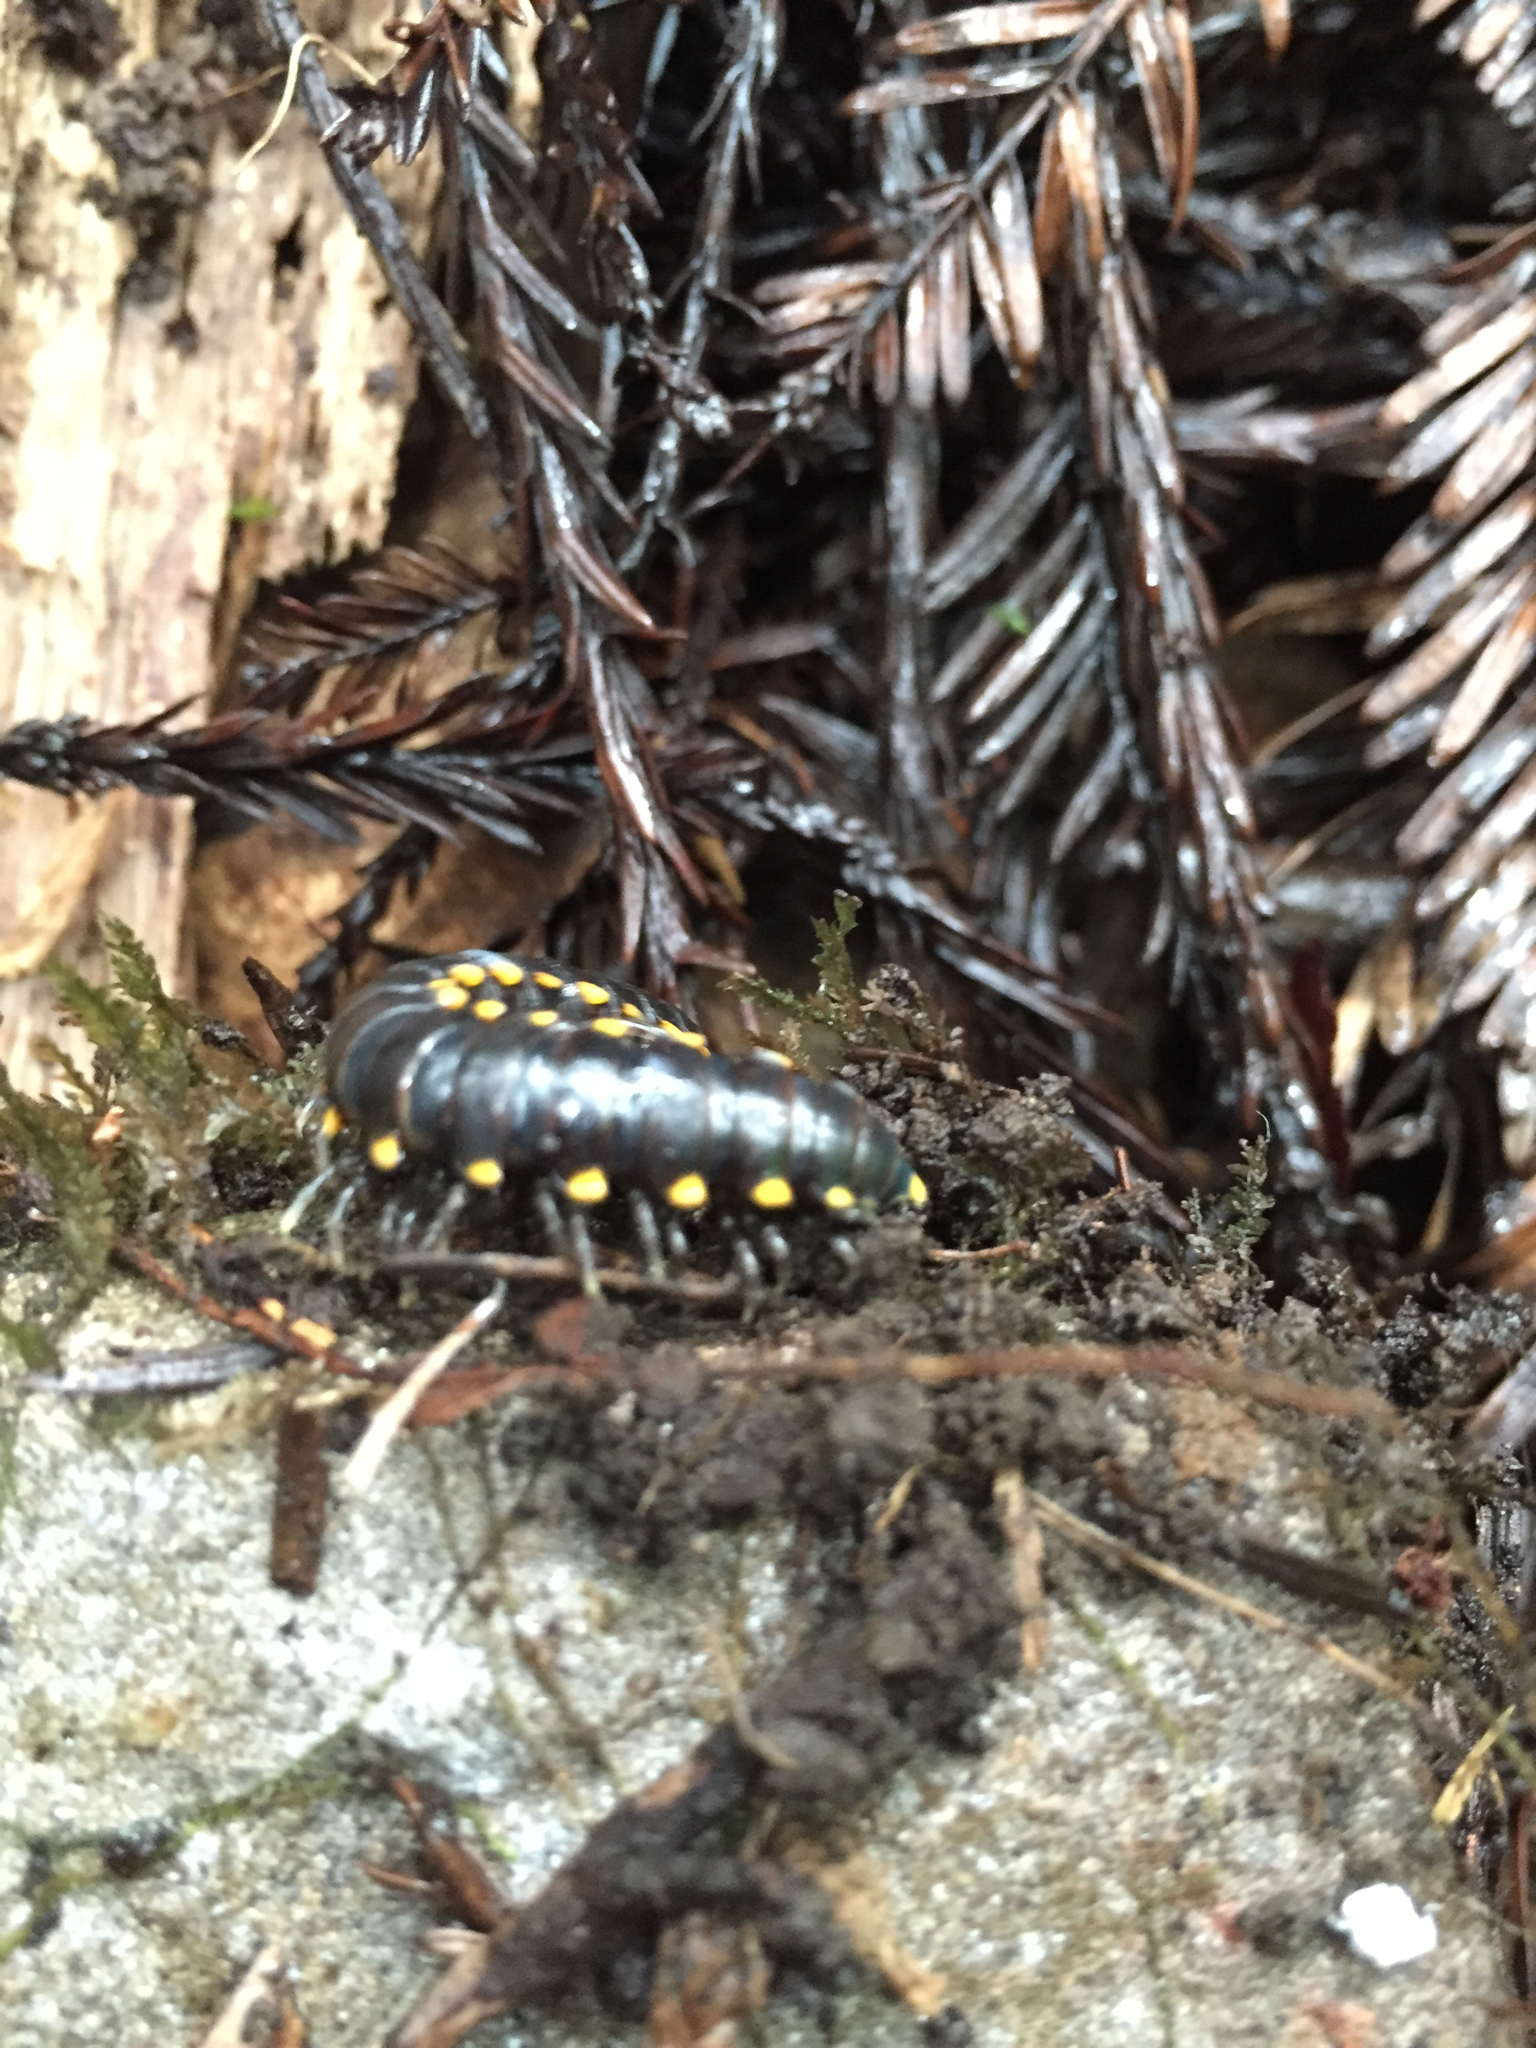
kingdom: Animalia
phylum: Arthropoda
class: Diplopoda
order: Polydesmida
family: Xystodesmidae
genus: Harpaphe
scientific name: Harpaphe haydeniana
